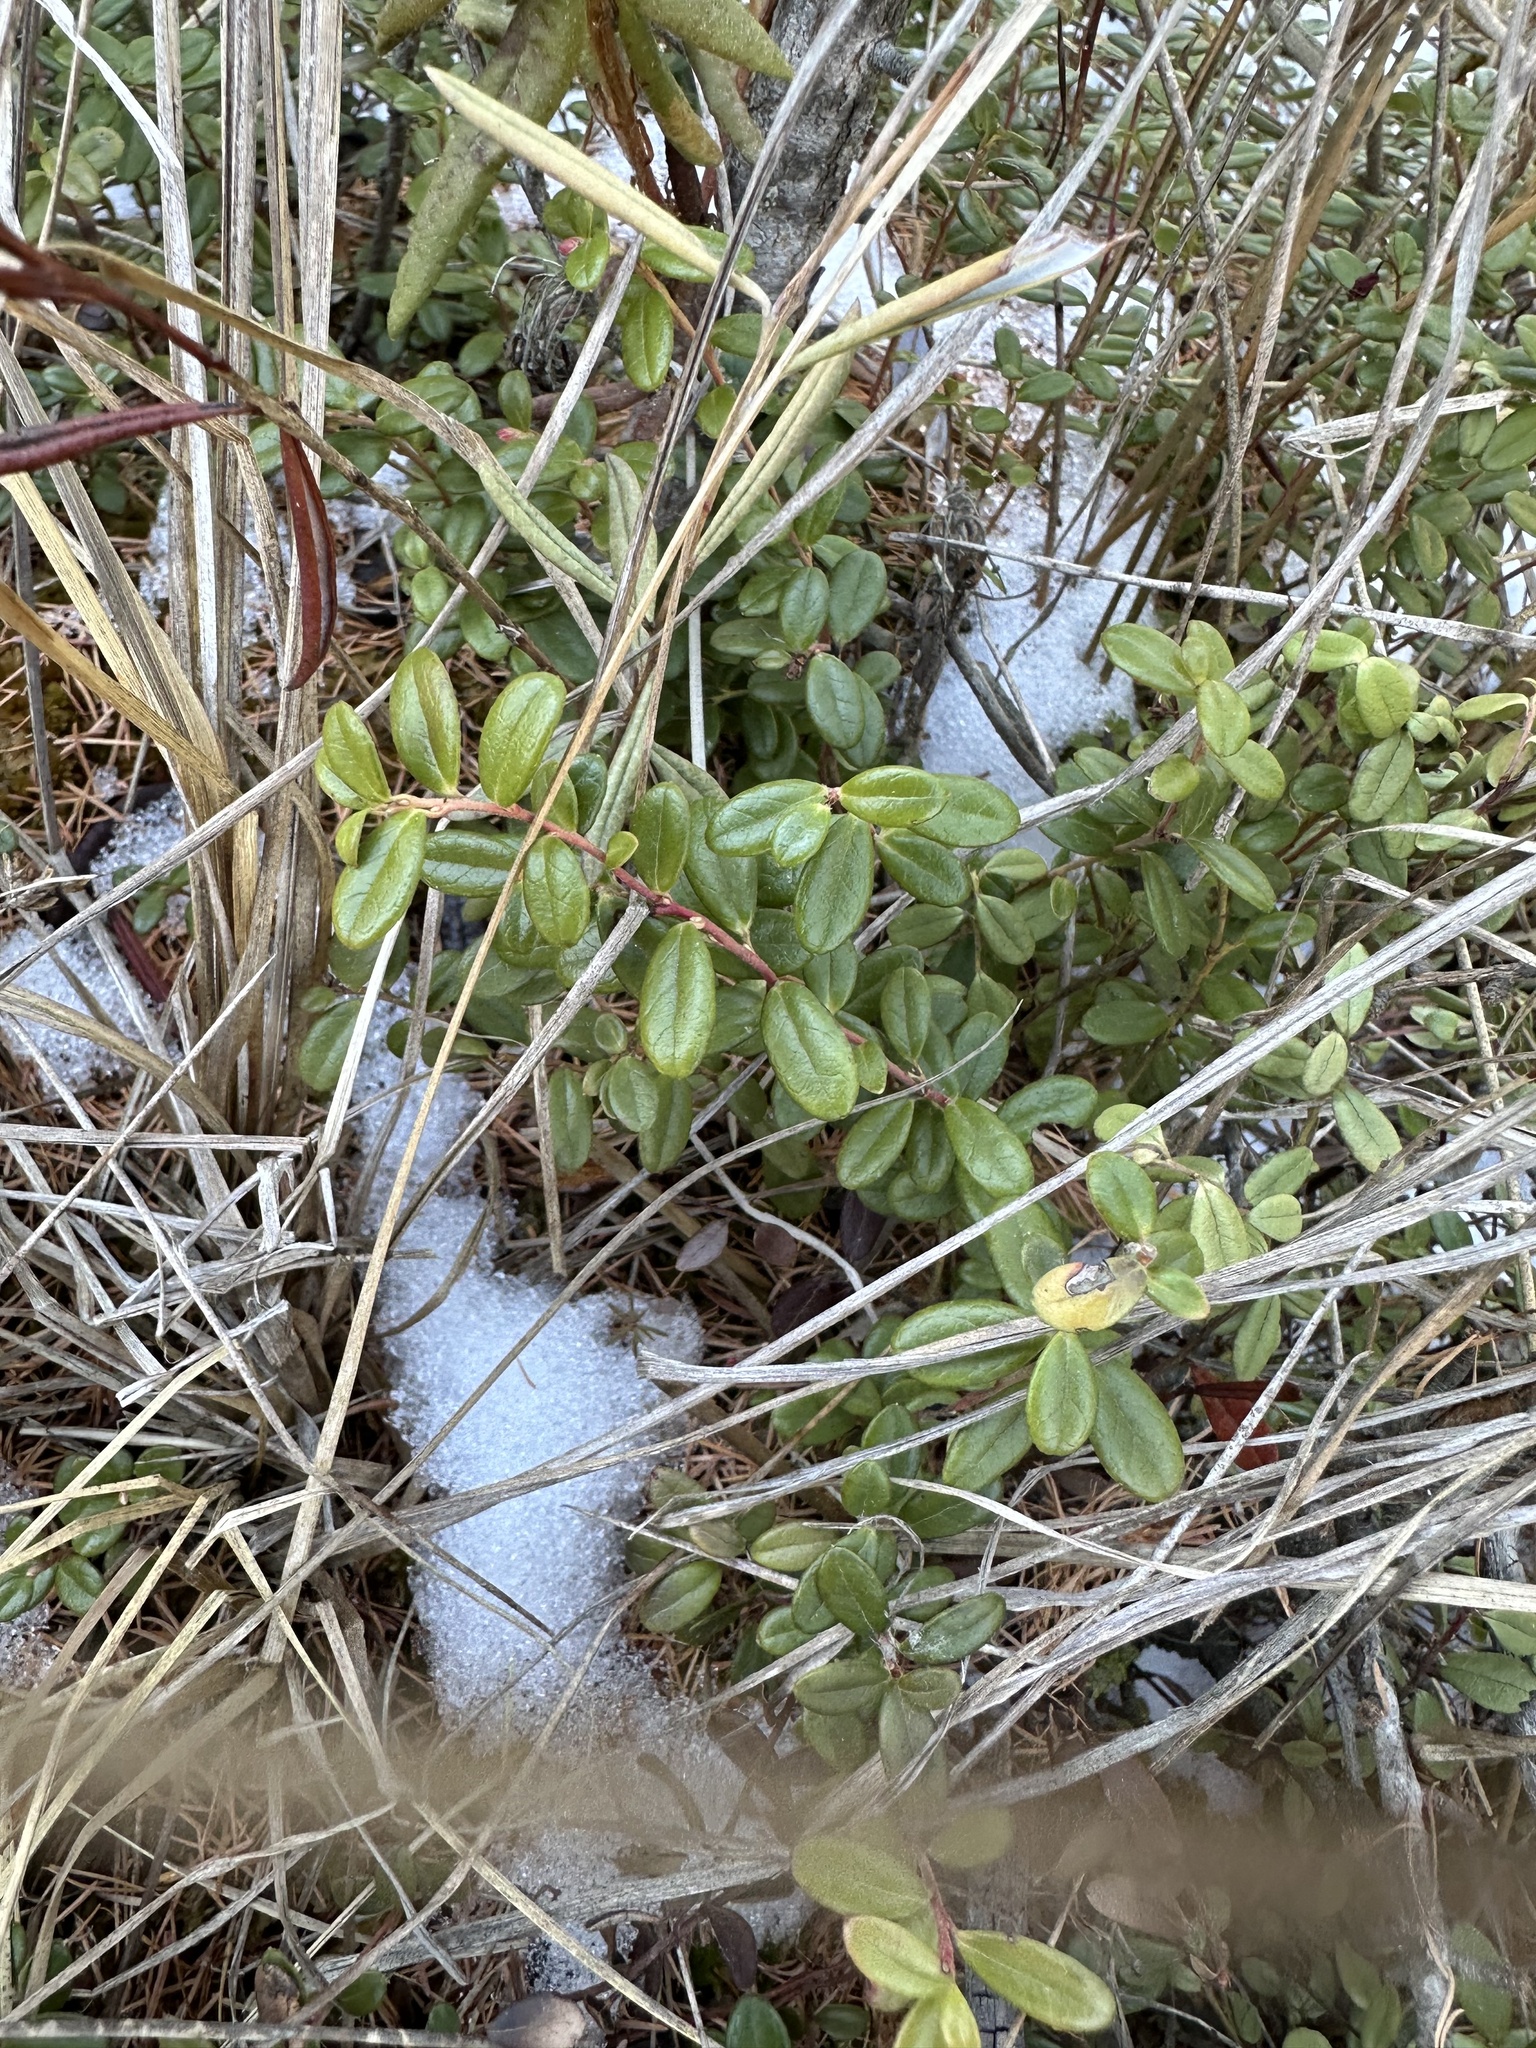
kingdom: Plantae
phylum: Tracheophyta
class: Magnoliopsida
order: Ericales
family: Ericaceae
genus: Vaccinium
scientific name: Vaccinium vitis-idaea
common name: Cowberry
